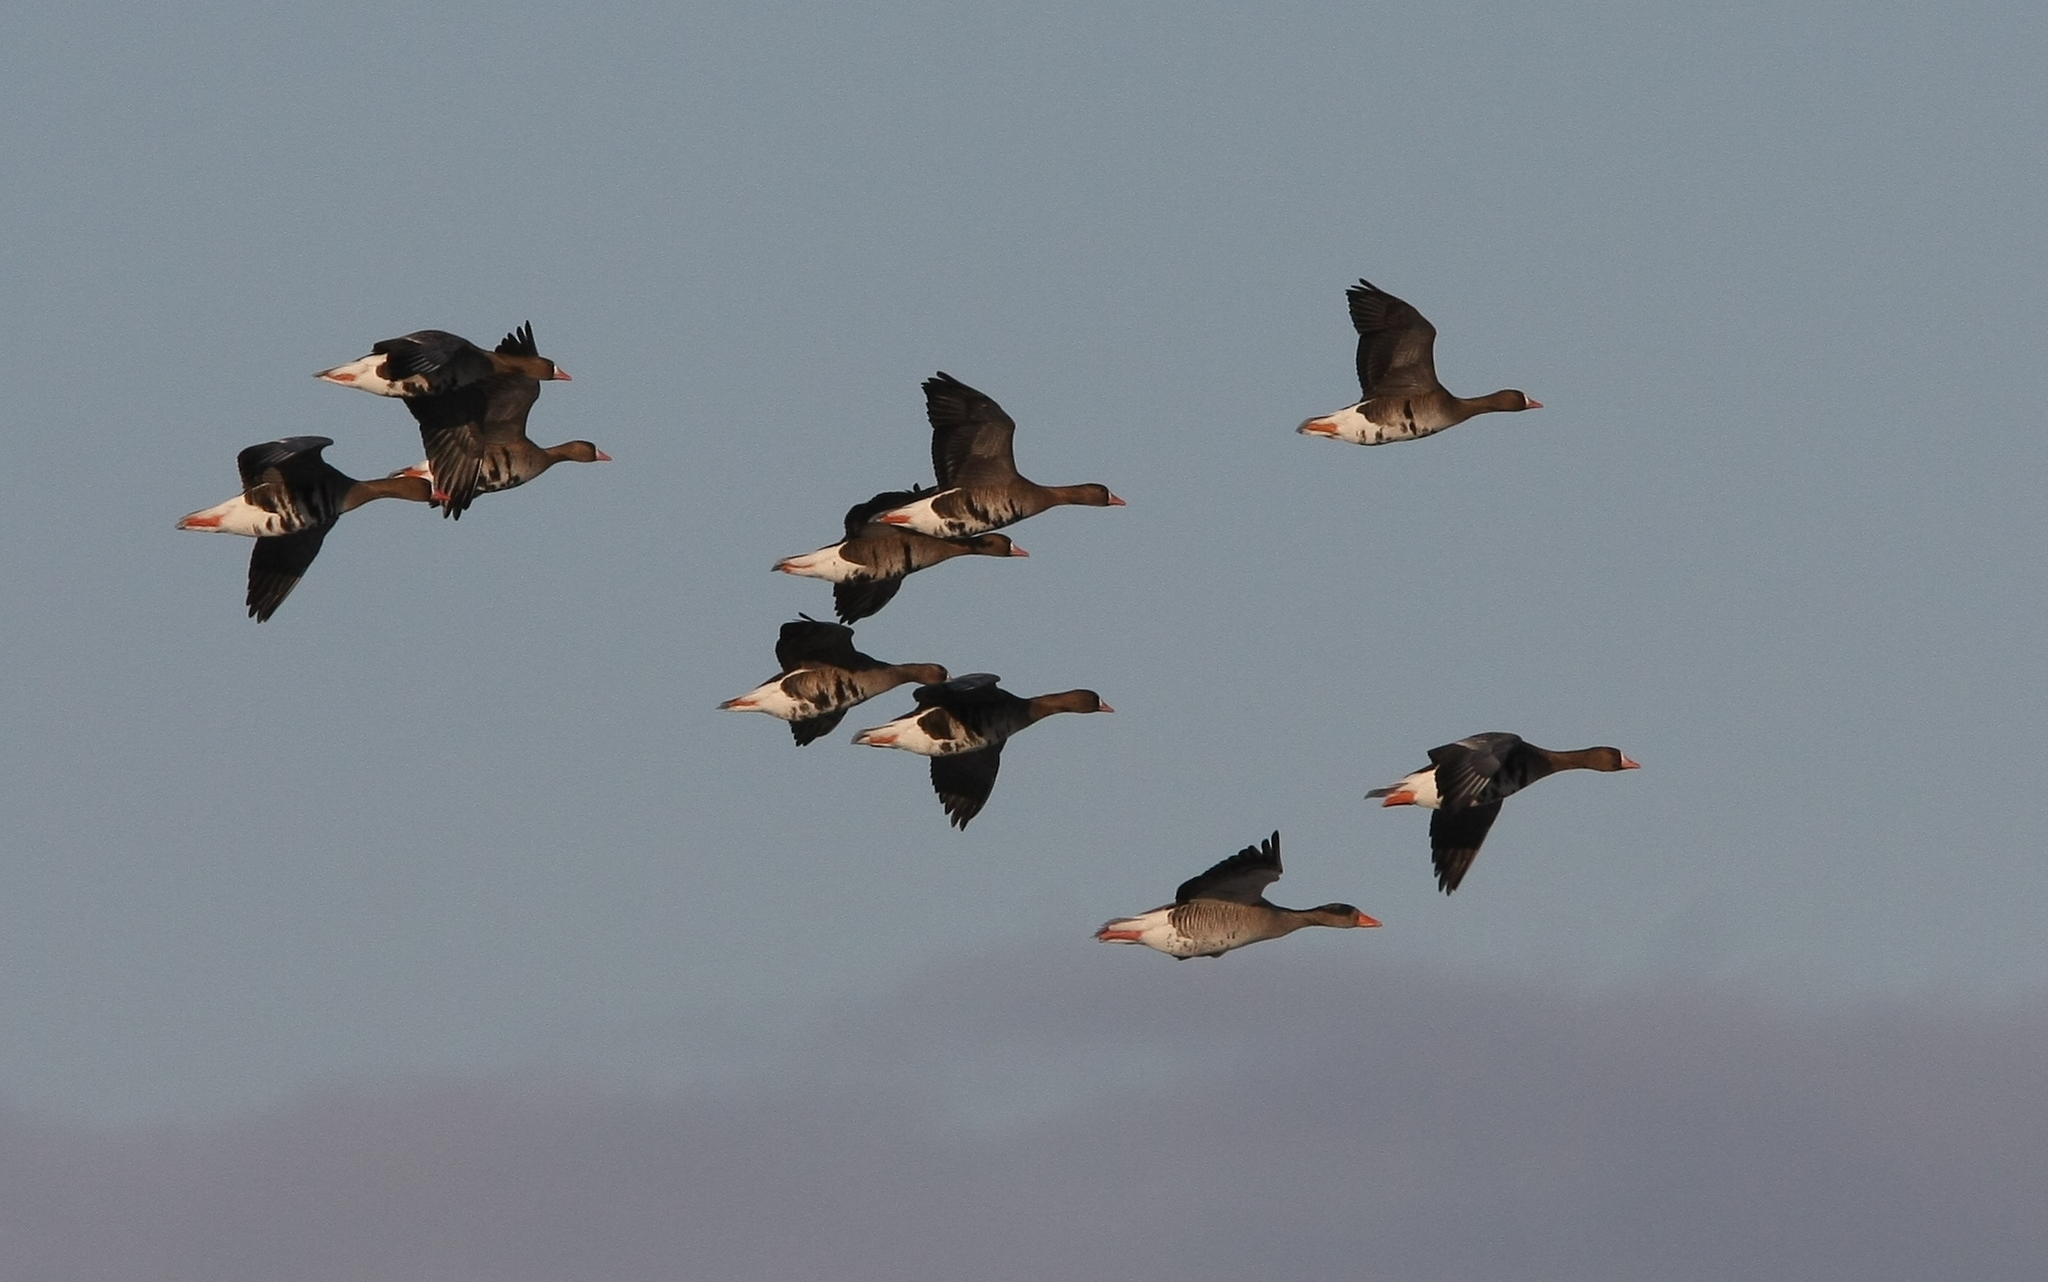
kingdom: Animalia
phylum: Chordata
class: Aves
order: Anseriformes
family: Anatidae
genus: Anser
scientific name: Anser albifrons
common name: Greater white-fronted goose
